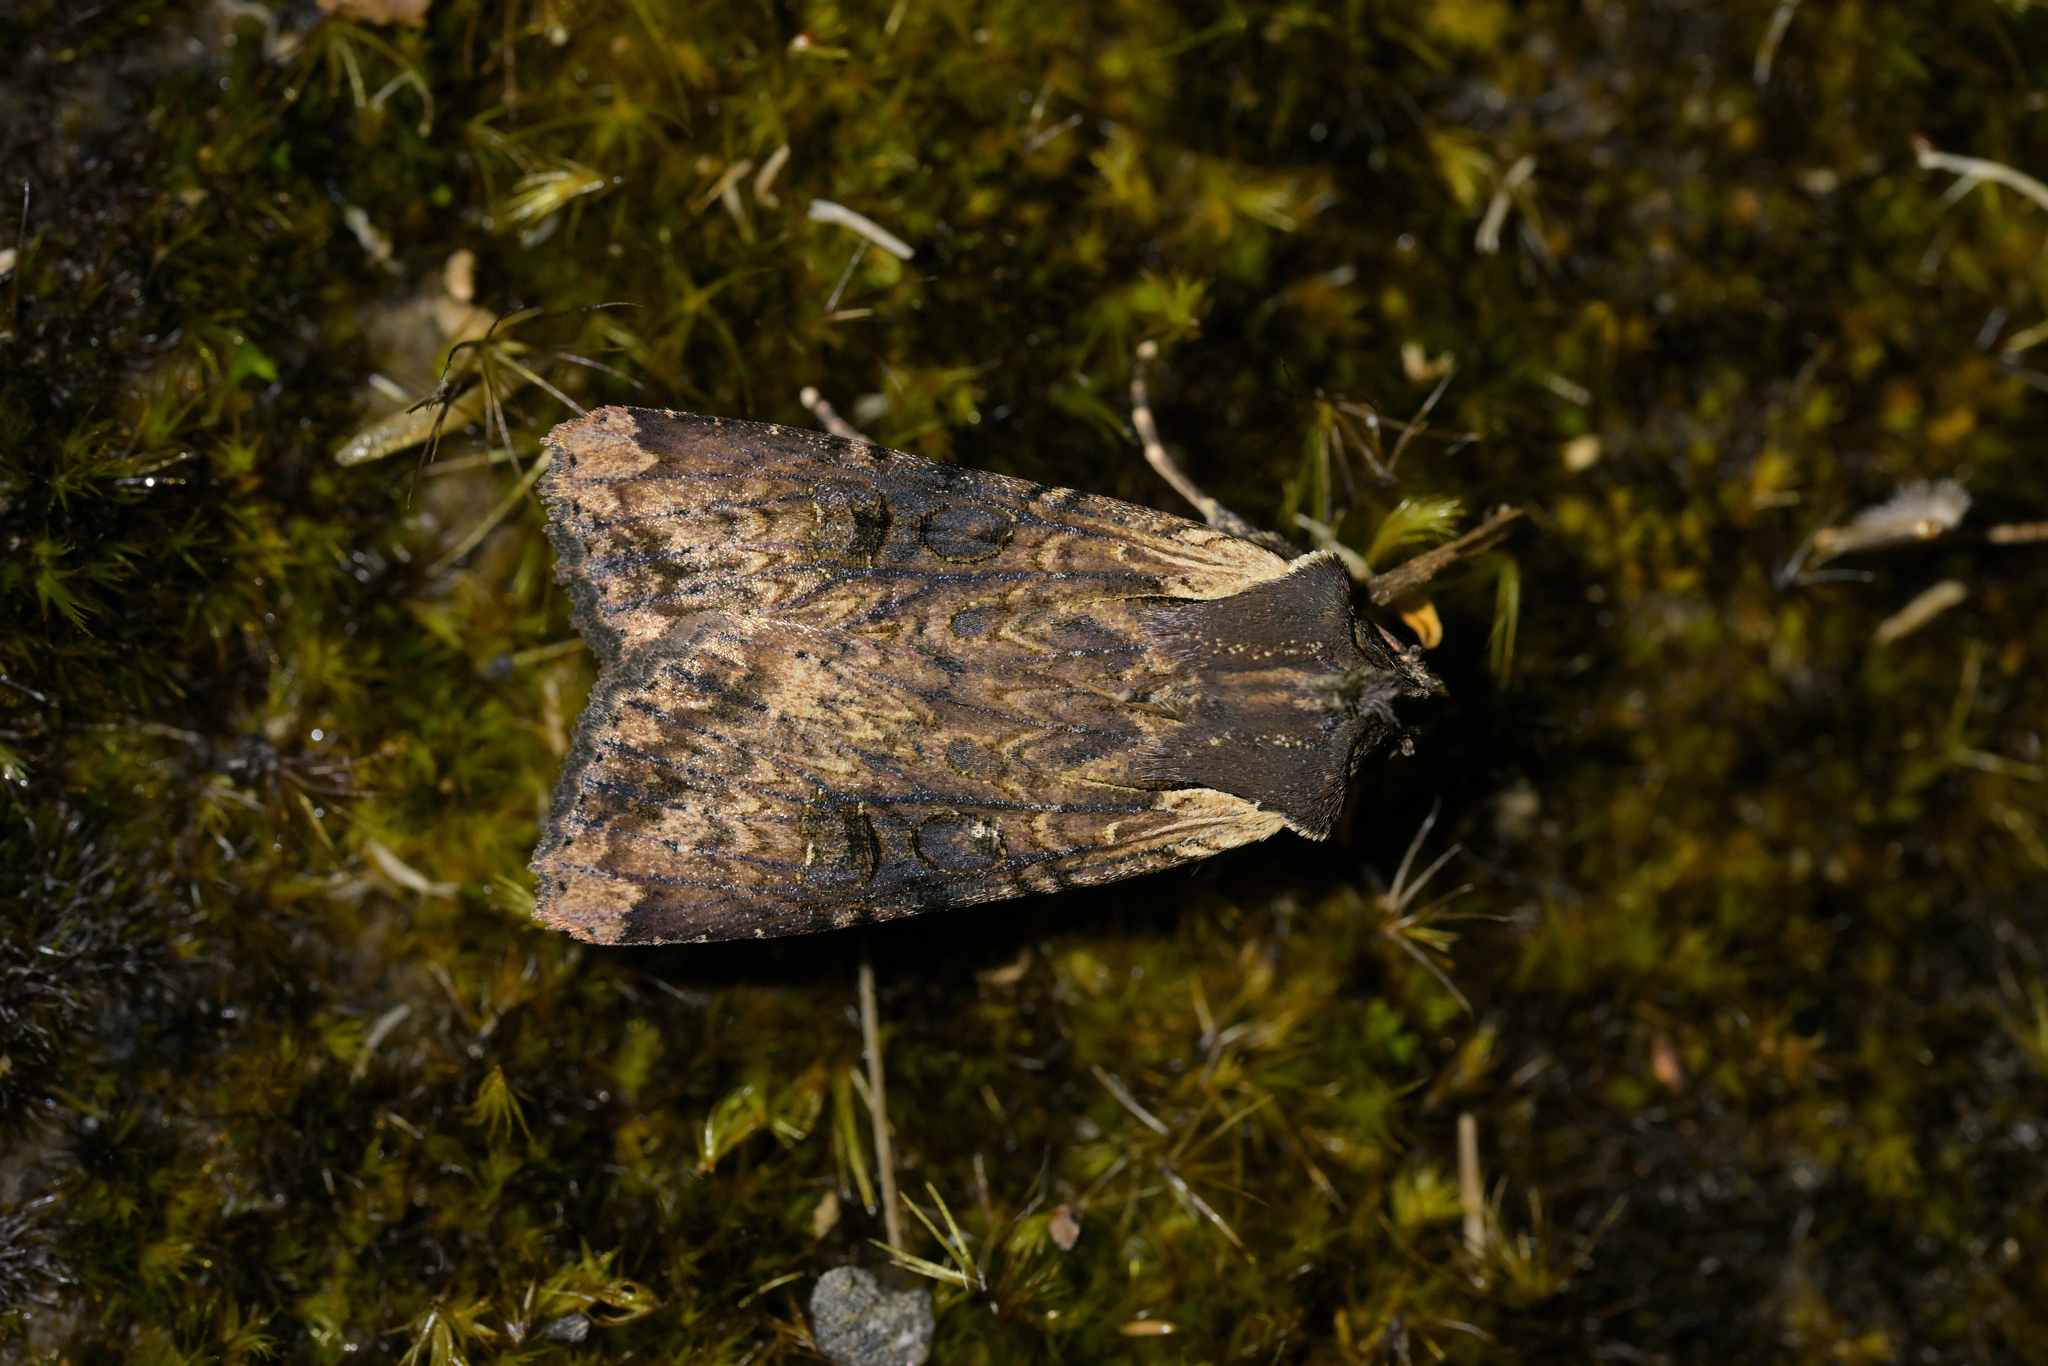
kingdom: Animalia
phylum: Arthropoda
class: Insecta
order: Lepidoptera
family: Noctuidae
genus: Ichneutica
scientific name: Ichneutica omoplaca
